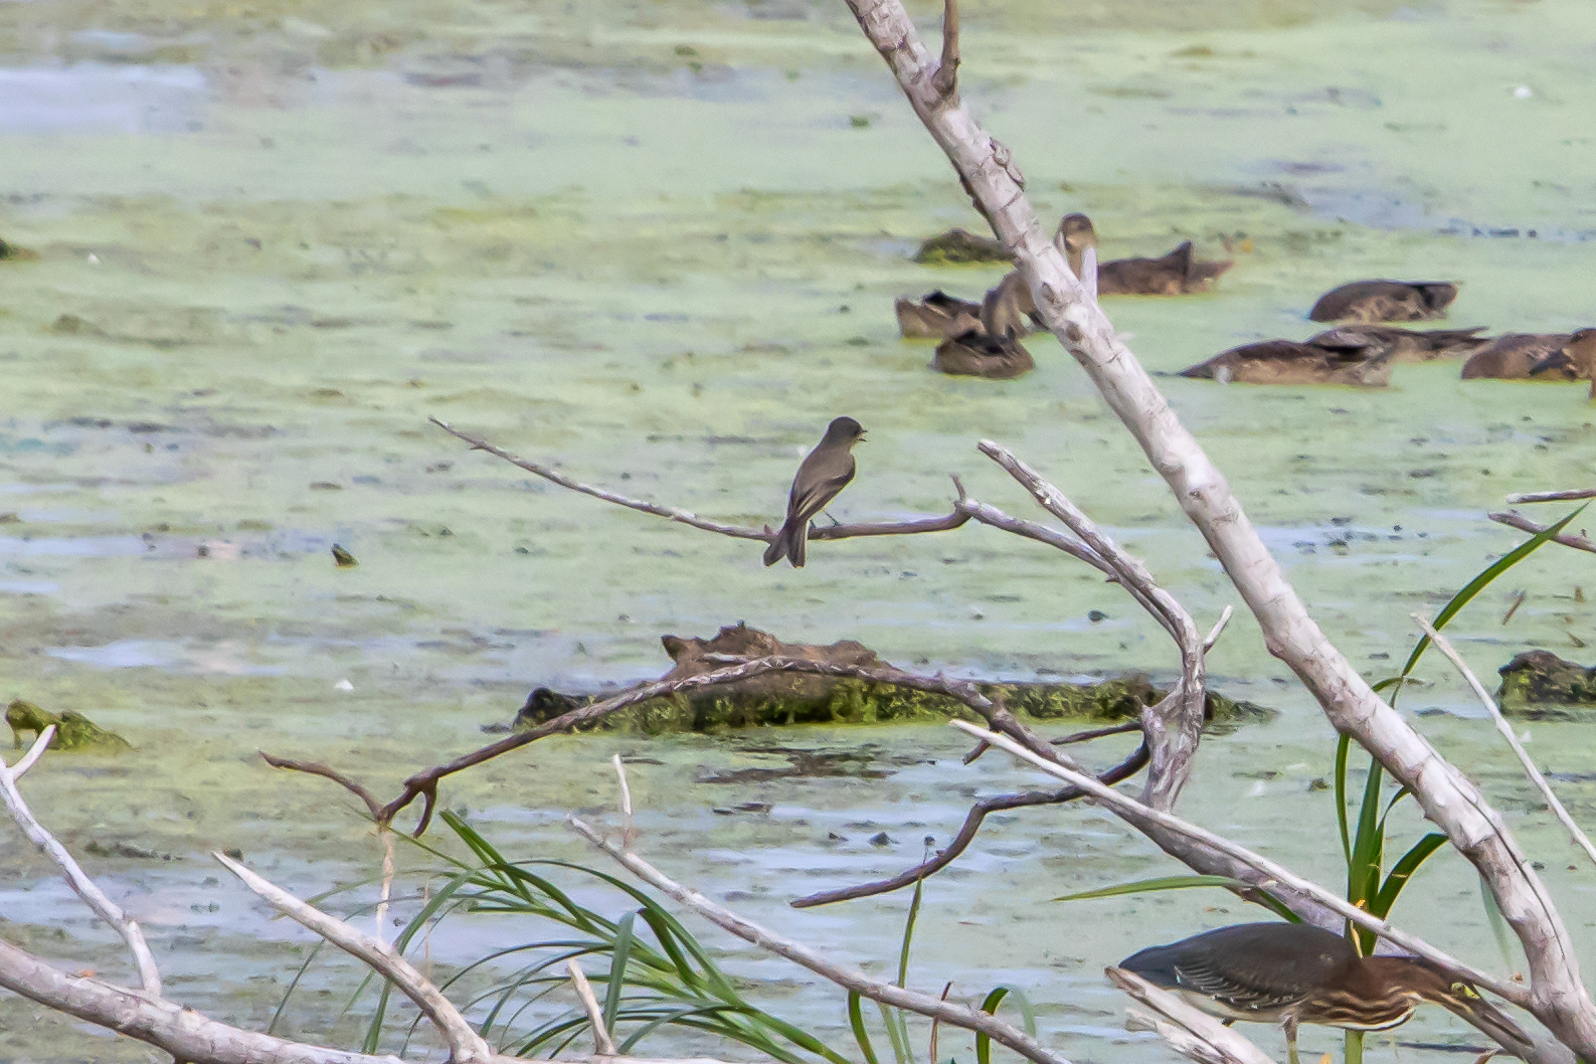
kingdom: Animalia
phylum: Chordata
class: Aves
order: Passeriformes
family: Tyrannidae
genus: Sayornis
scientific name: Sayornis phoebe
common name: Eastern phoebe
